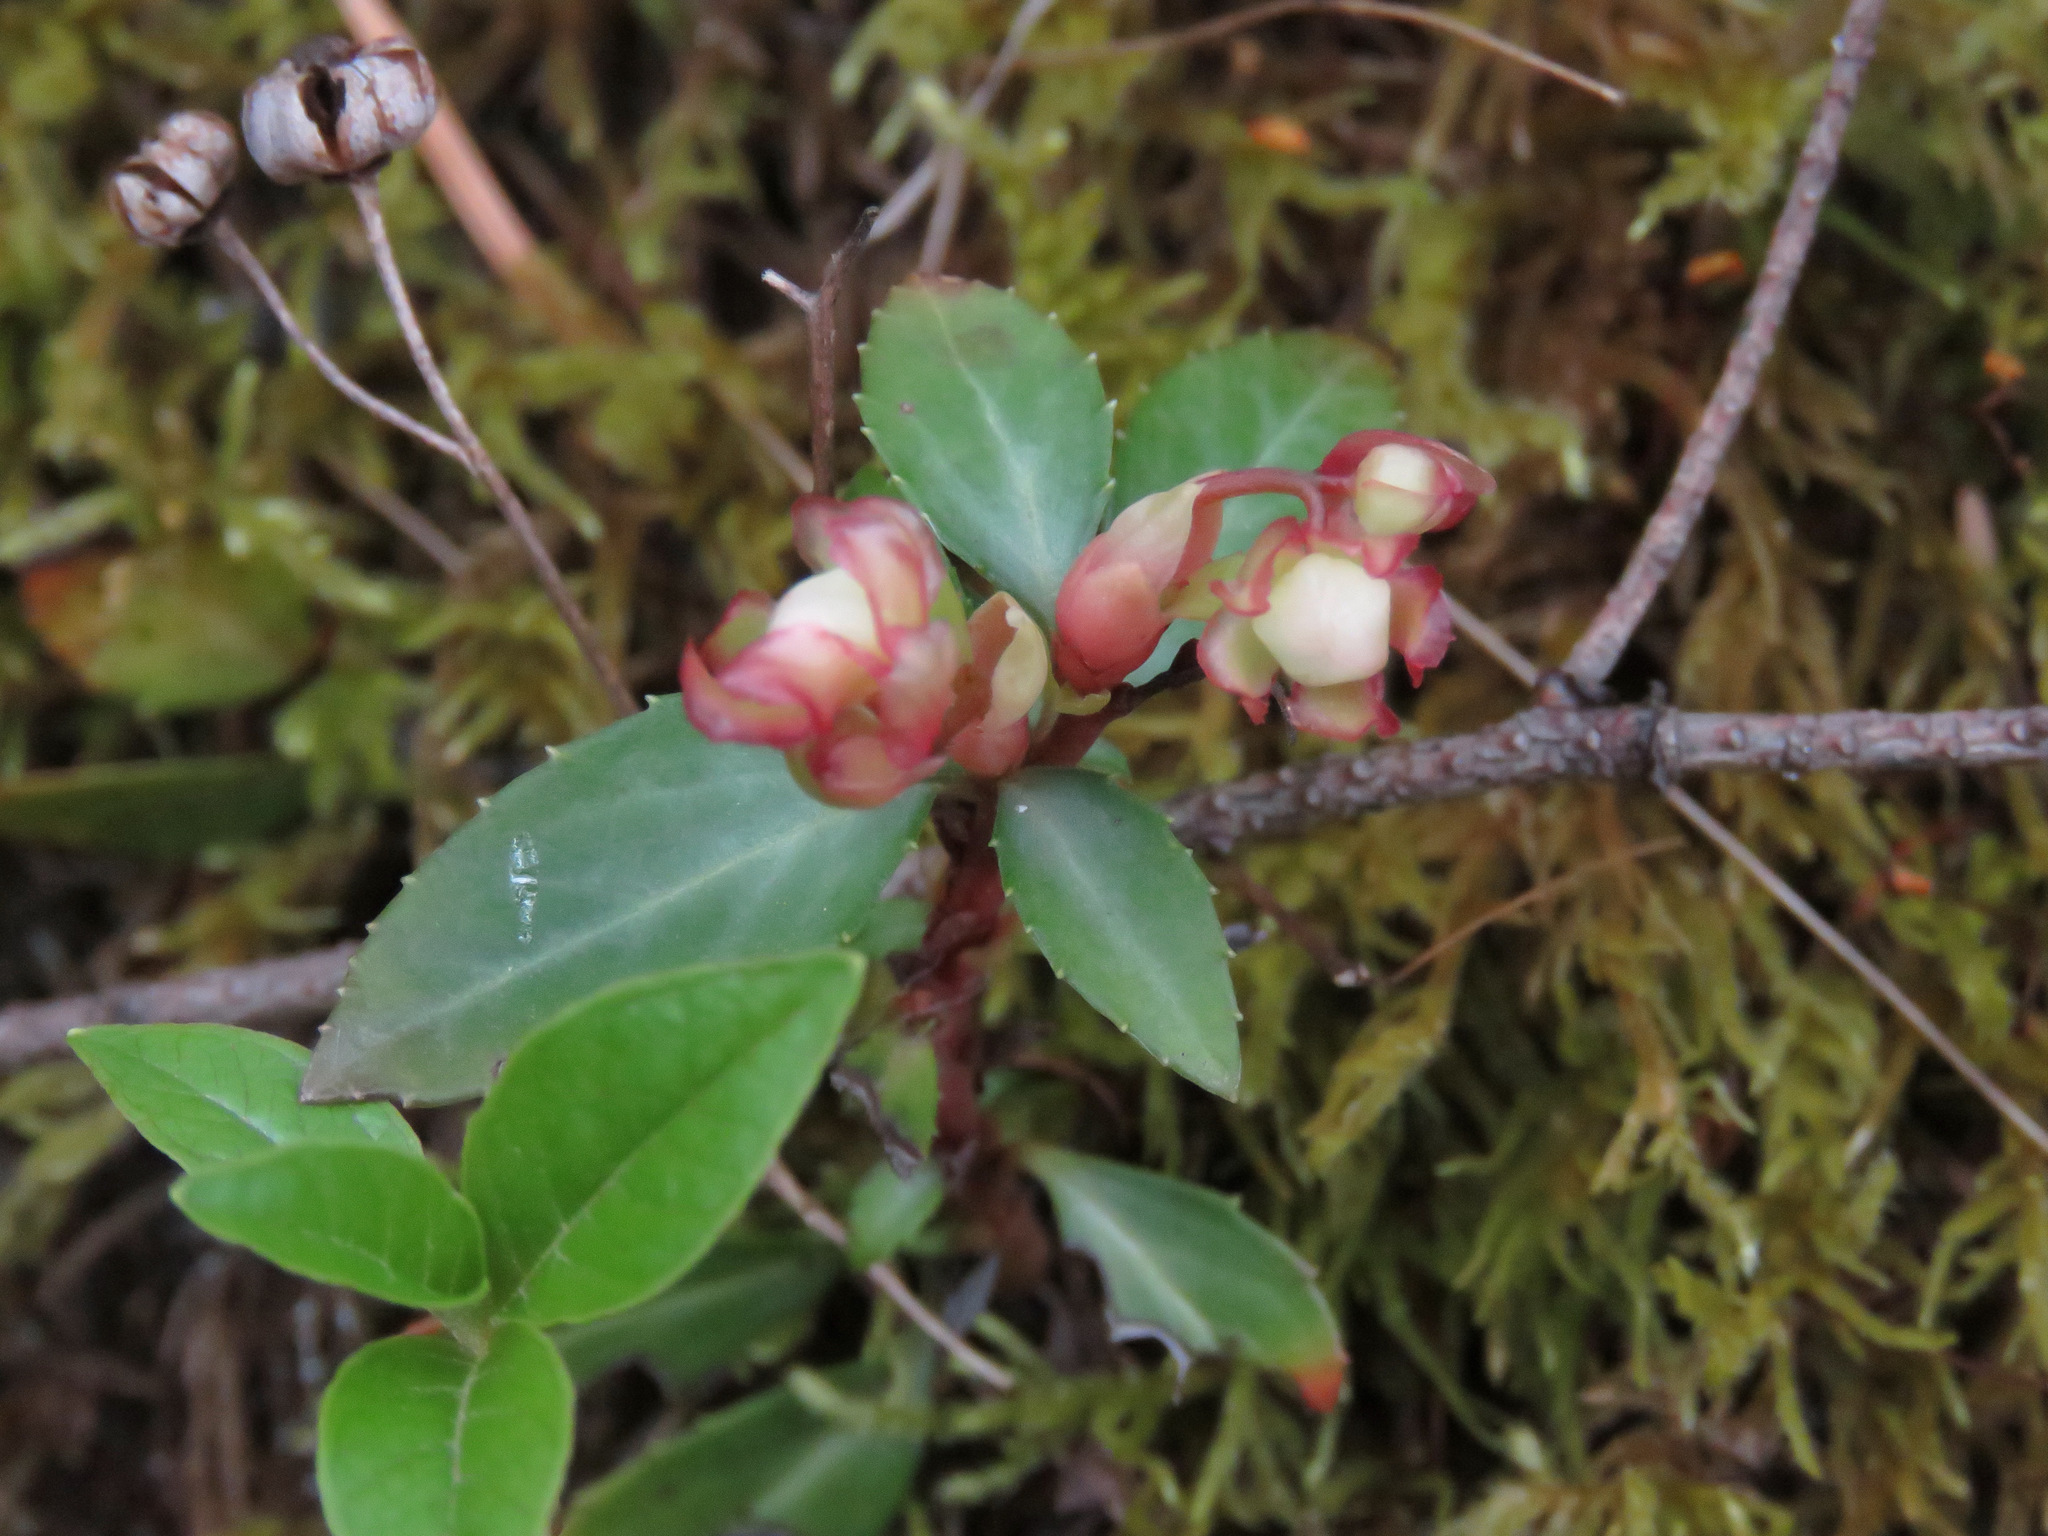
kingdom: Plantae
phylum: Tracheophyta
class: Magnoliopsida
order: Ericales
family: Ericaceae
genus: Chimaphila
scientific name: Chimaphila menziesii
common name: Menzies' pipsissewa
